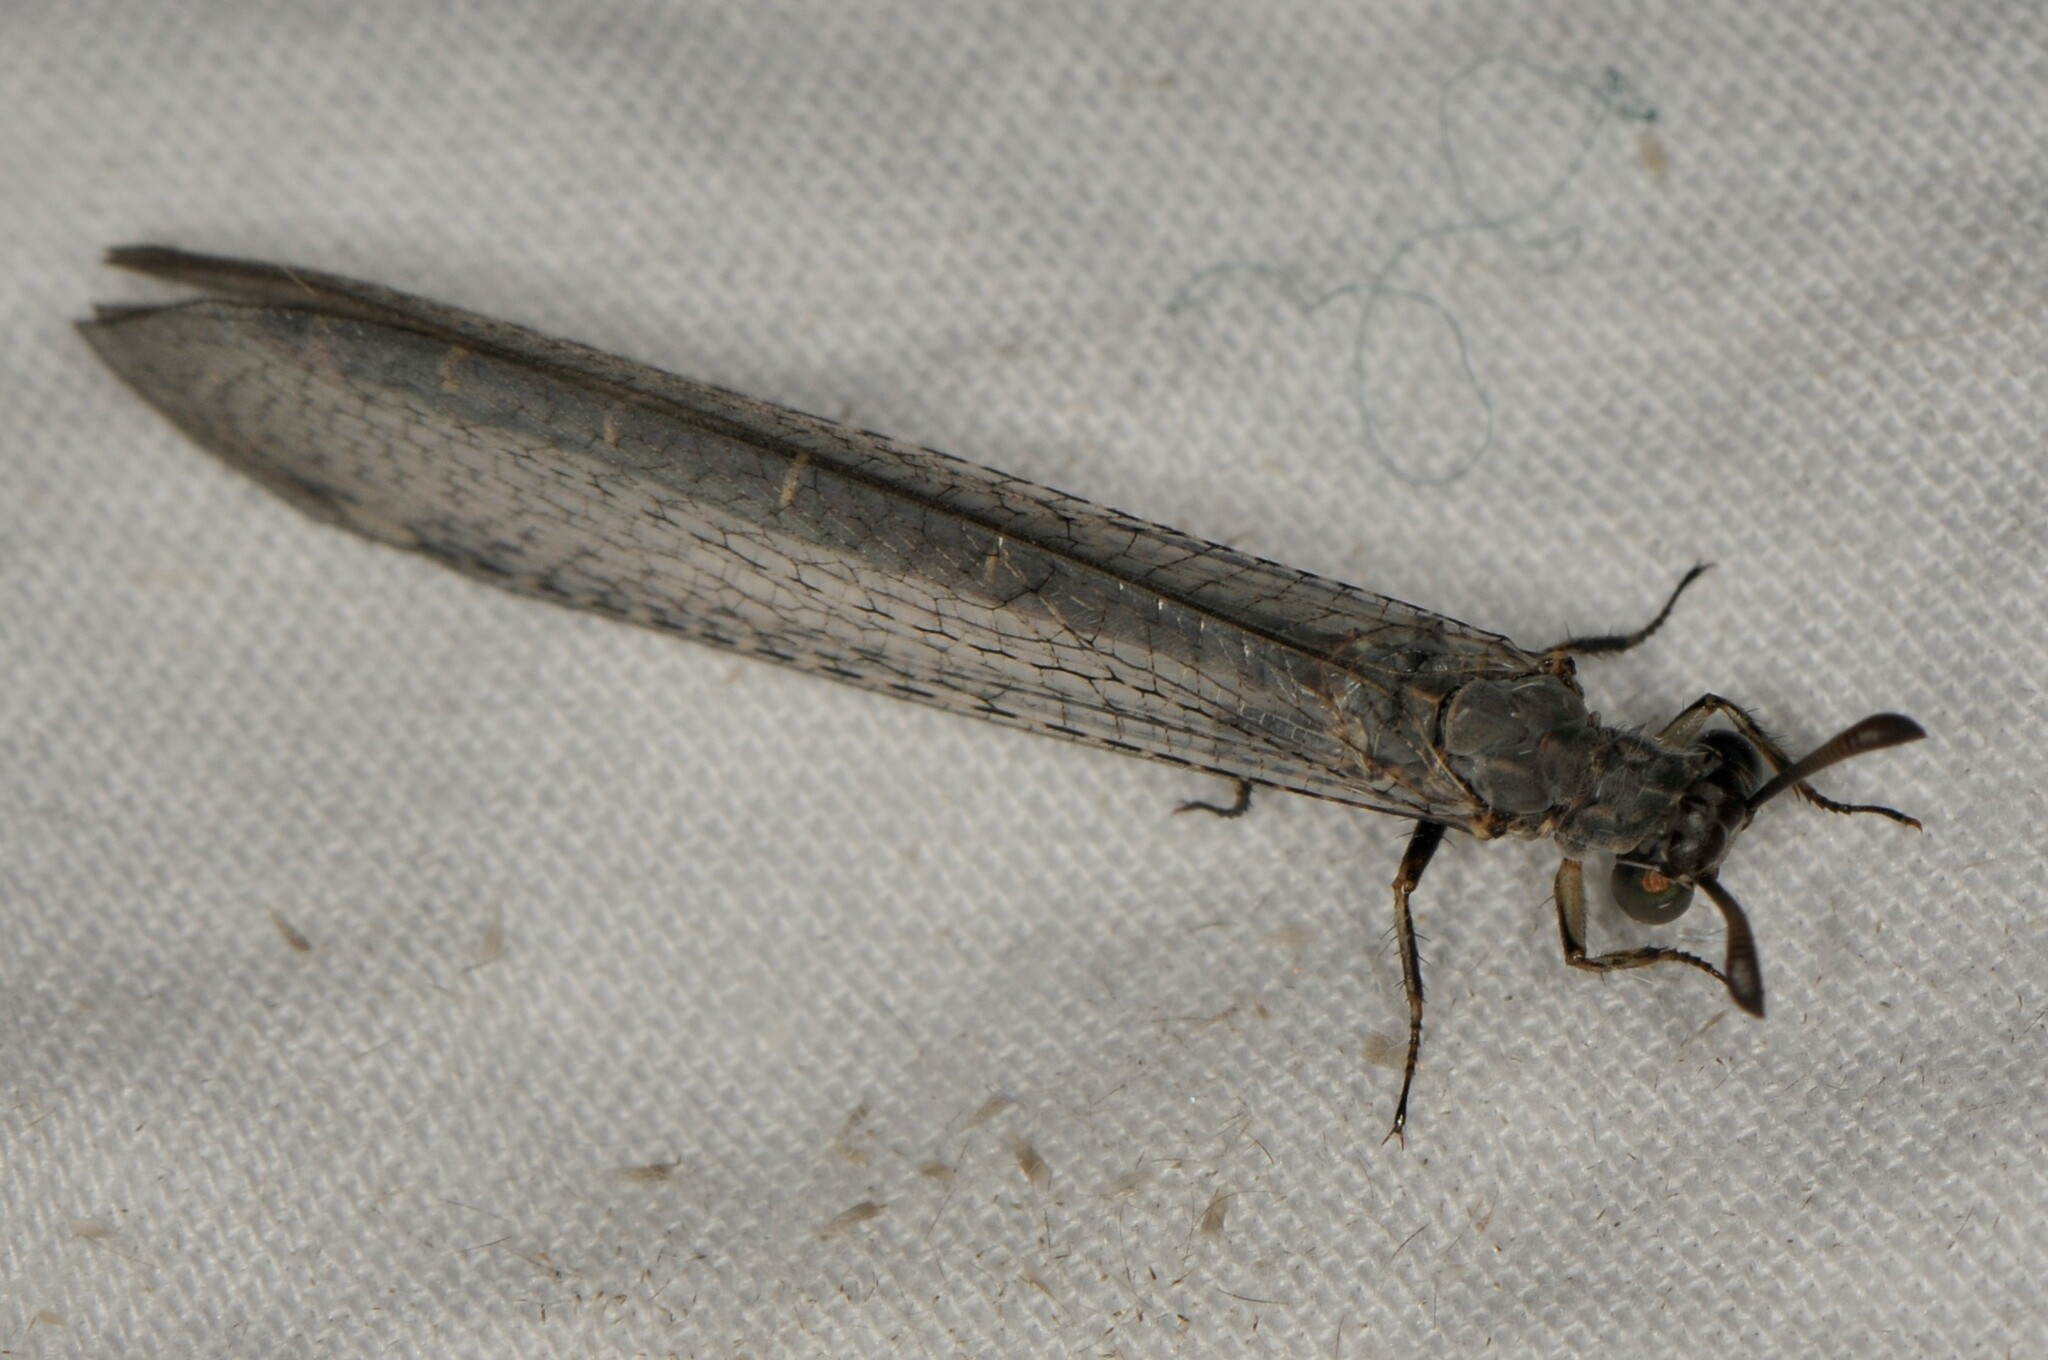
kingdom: Animalia
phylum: Arthropoda
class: Insecta
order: Neuroptera
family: Myrmeleontidae
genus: Myrmeleon
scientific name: Myrmeleon
